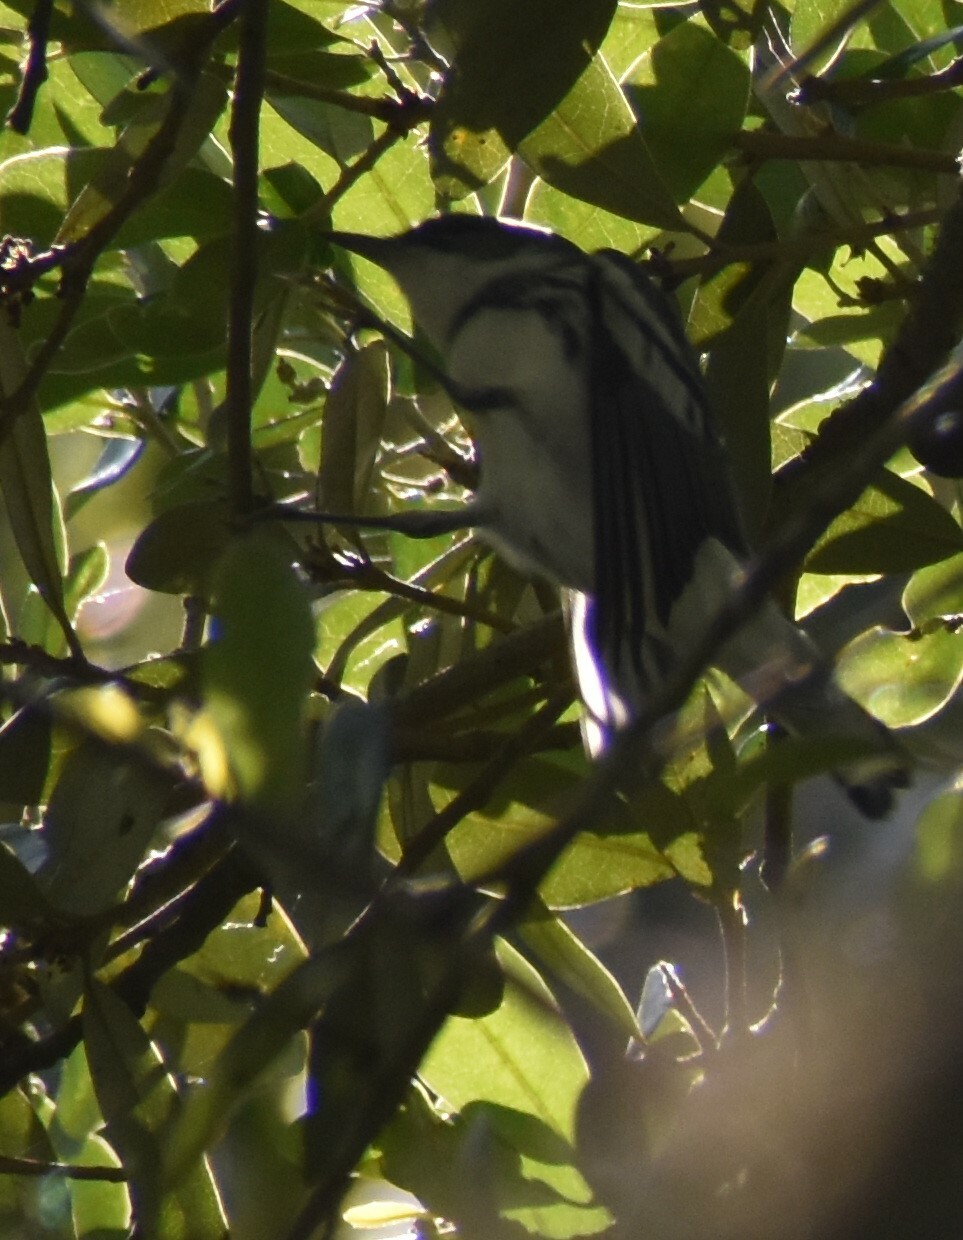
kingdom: Animalia
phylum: Chordata
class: Aves
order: Passeriformes
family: Parulidae
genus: Setophaga
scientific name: Setophaga cerulea
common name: Cerulean warbler
